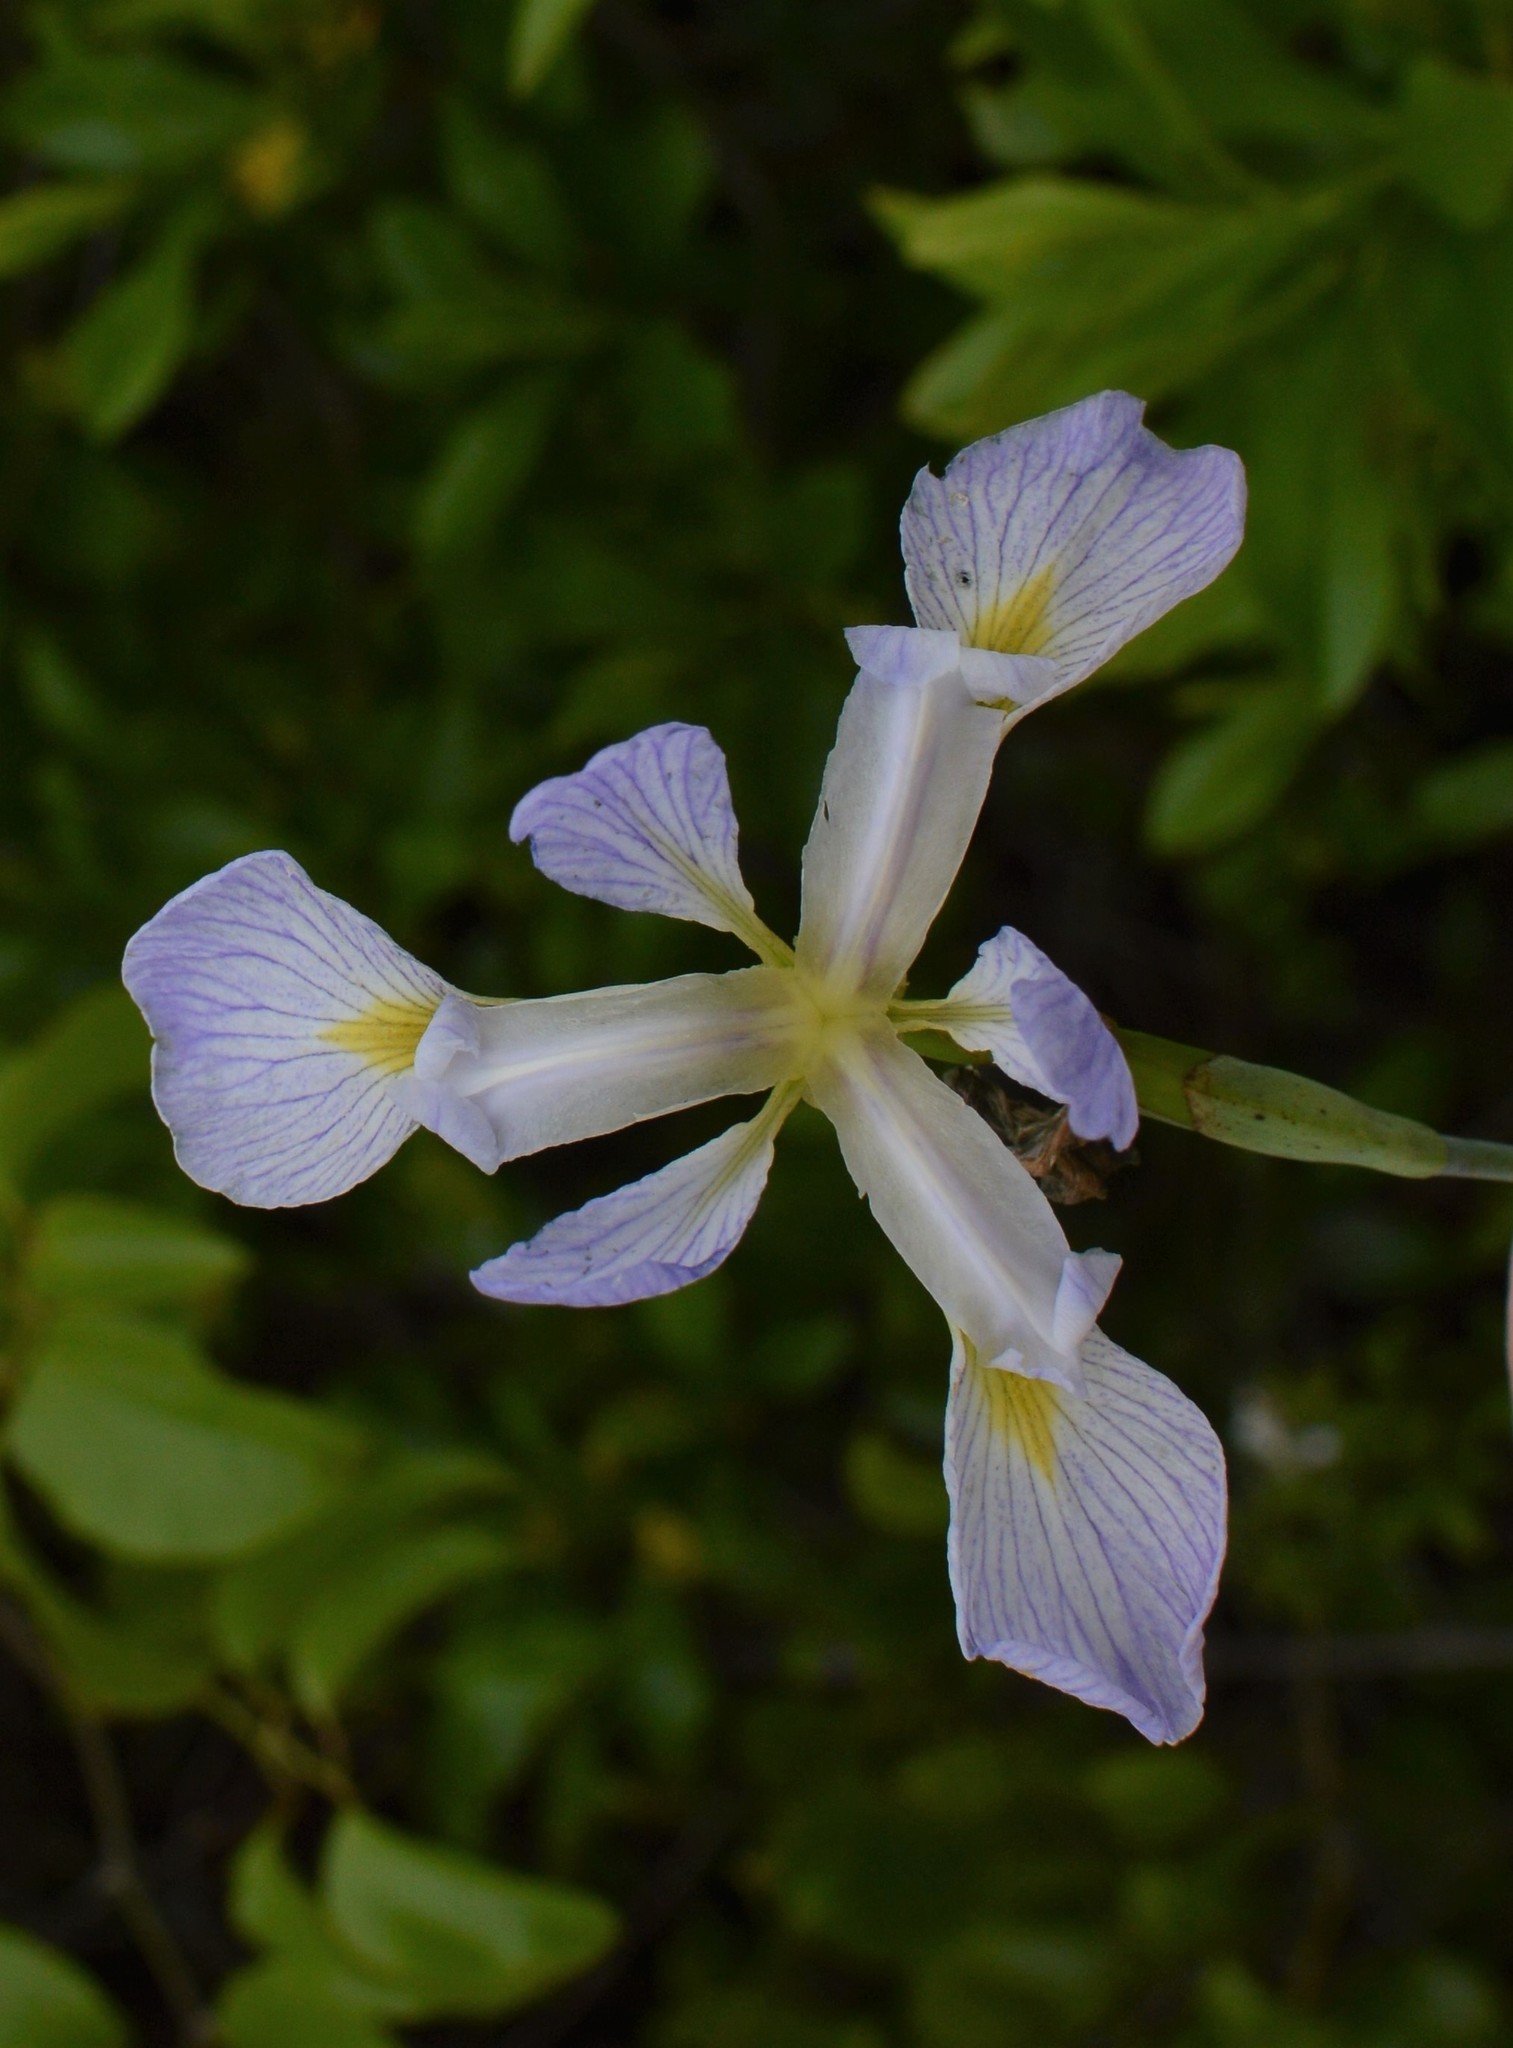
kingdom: Plantae
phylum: Tracheophyta
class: Liliopsida
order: Asparagales
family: Iridaceae
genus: Iris
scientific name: Iris virginica
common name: Southern blue flag
